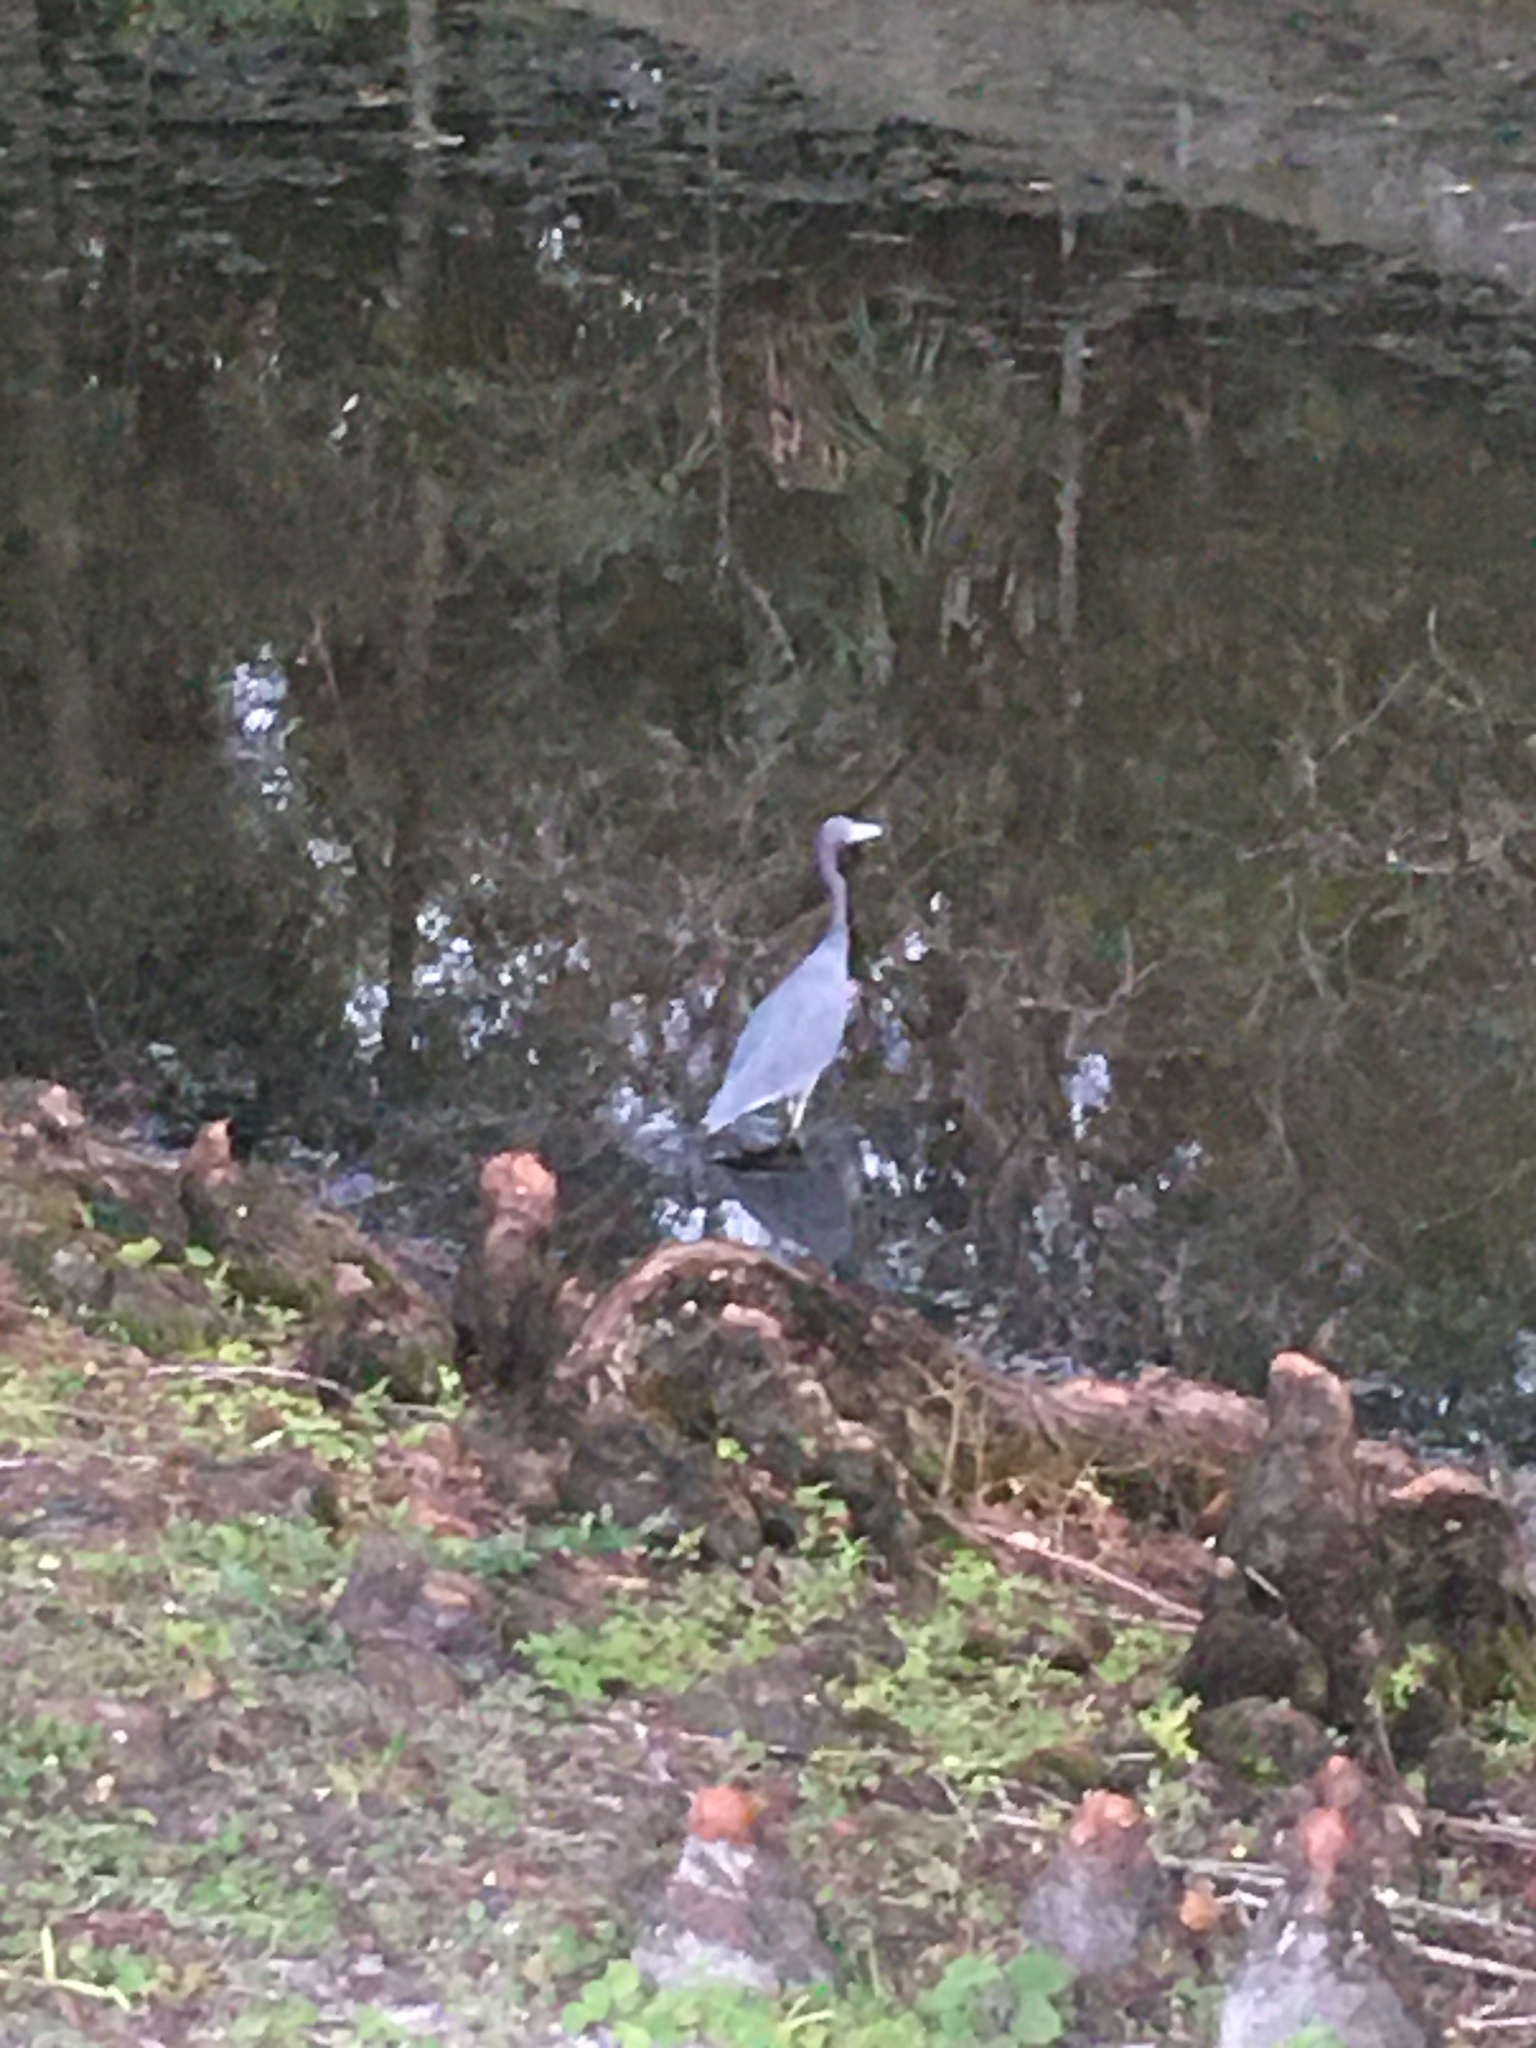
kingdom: Animalia
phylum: Chordata
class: Aves
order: Pelecaniformes
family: Ardeidae
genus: Egretta
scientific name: Egretta caerulea
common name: Little blue heron
